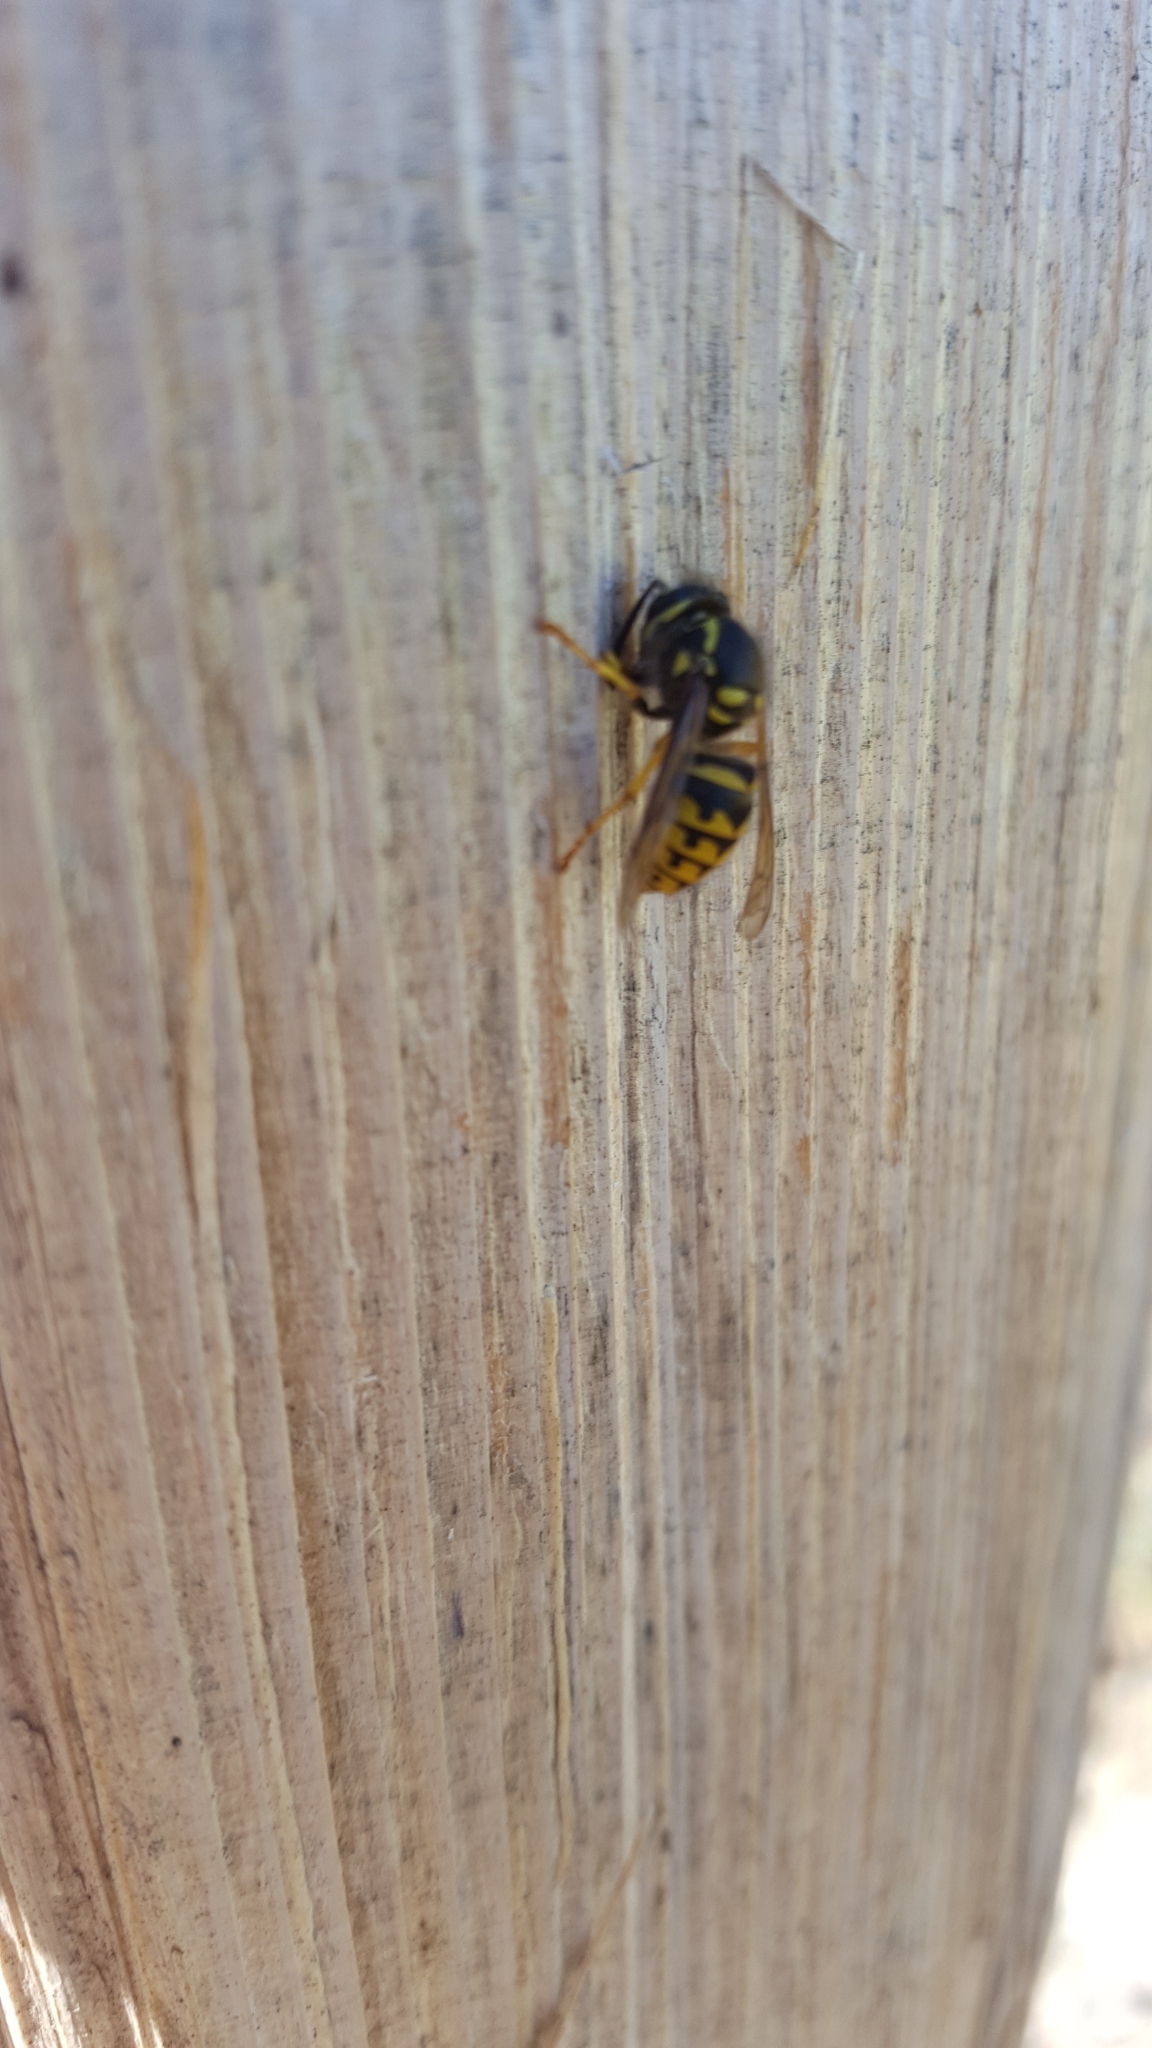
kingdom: Animalia
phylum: Arthropoda
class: Insecta
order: Hymenoptera
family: Vespidae
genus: Dolichovespula
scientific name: Dolichovespula arenaria
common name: Aerial yellowjacket
